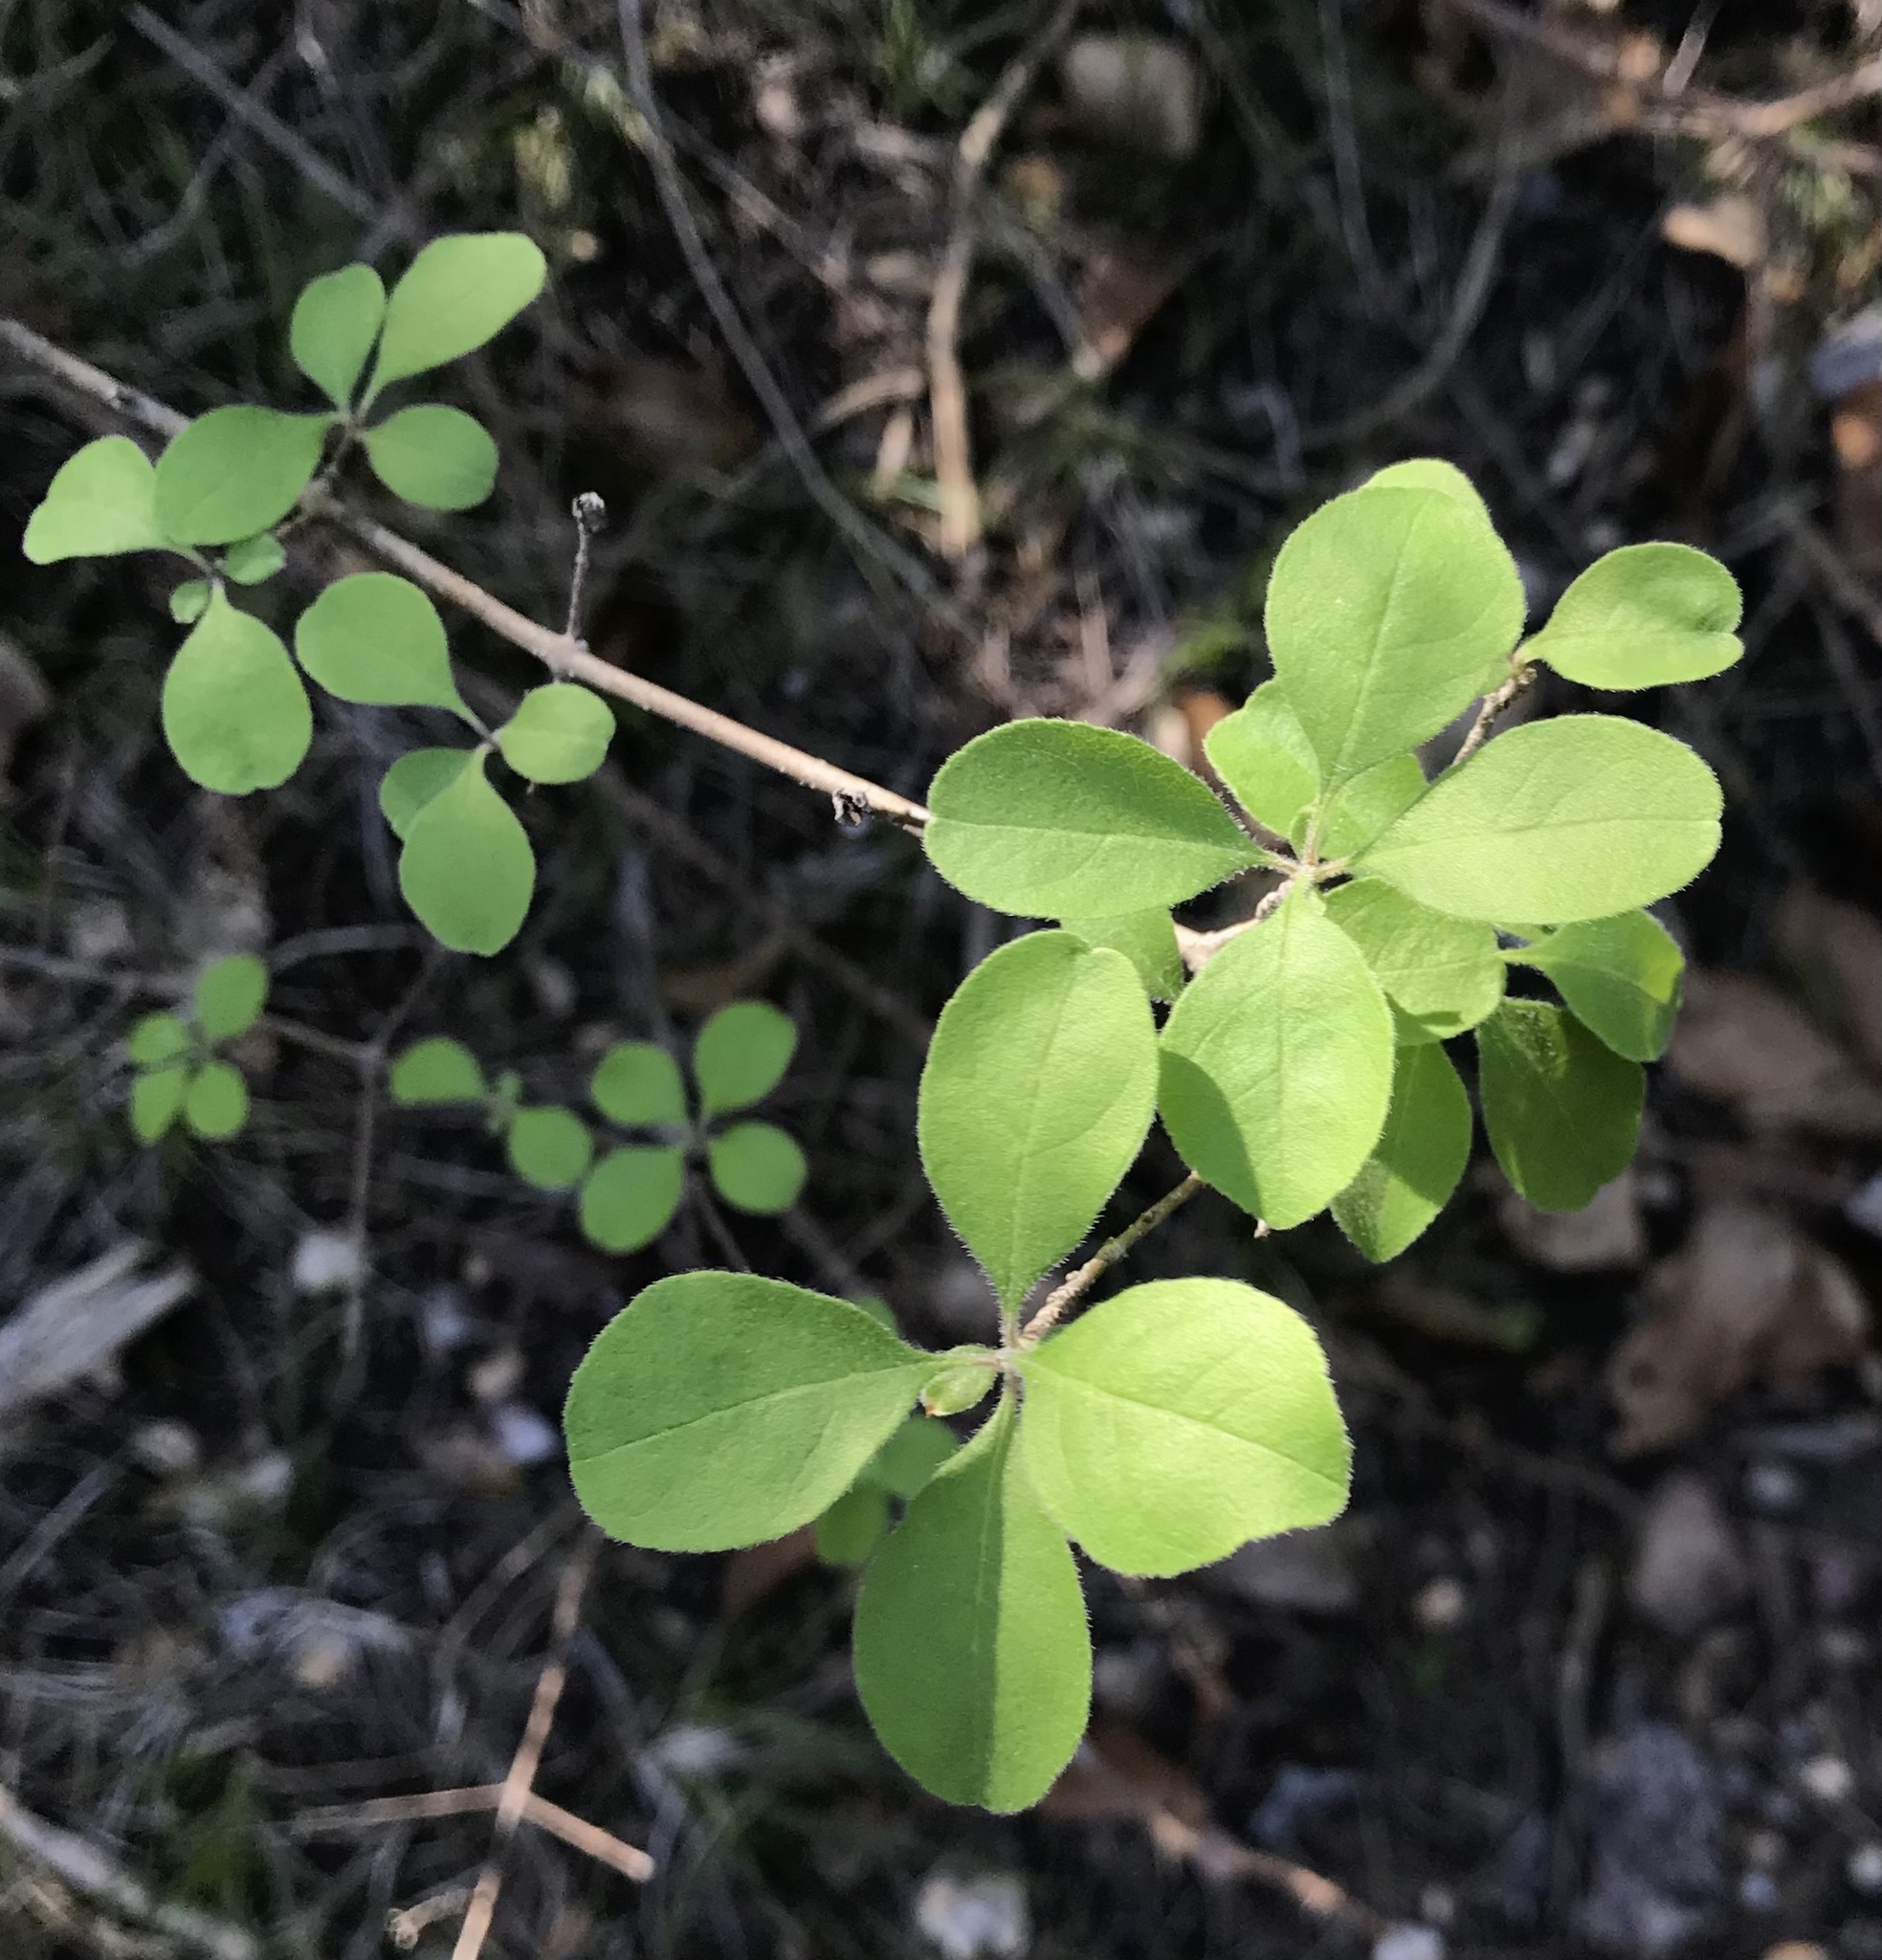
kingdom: Plantae
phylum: Tracheophyta
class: Magnoliopsida
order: Lamiales
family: Oleaceae
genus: Forestiera
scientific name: Forestiera pubescens
